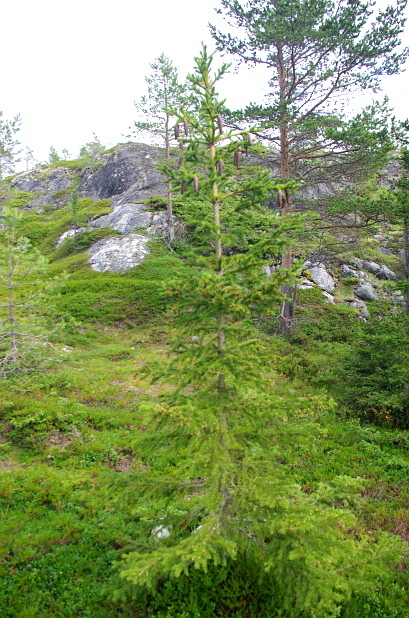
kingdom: Plantae
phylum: Tracheophyta
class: Pinopsida
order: Pinales
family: Pinaceae
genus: Picea
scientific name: Picea obovata
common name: Siberian spruce
